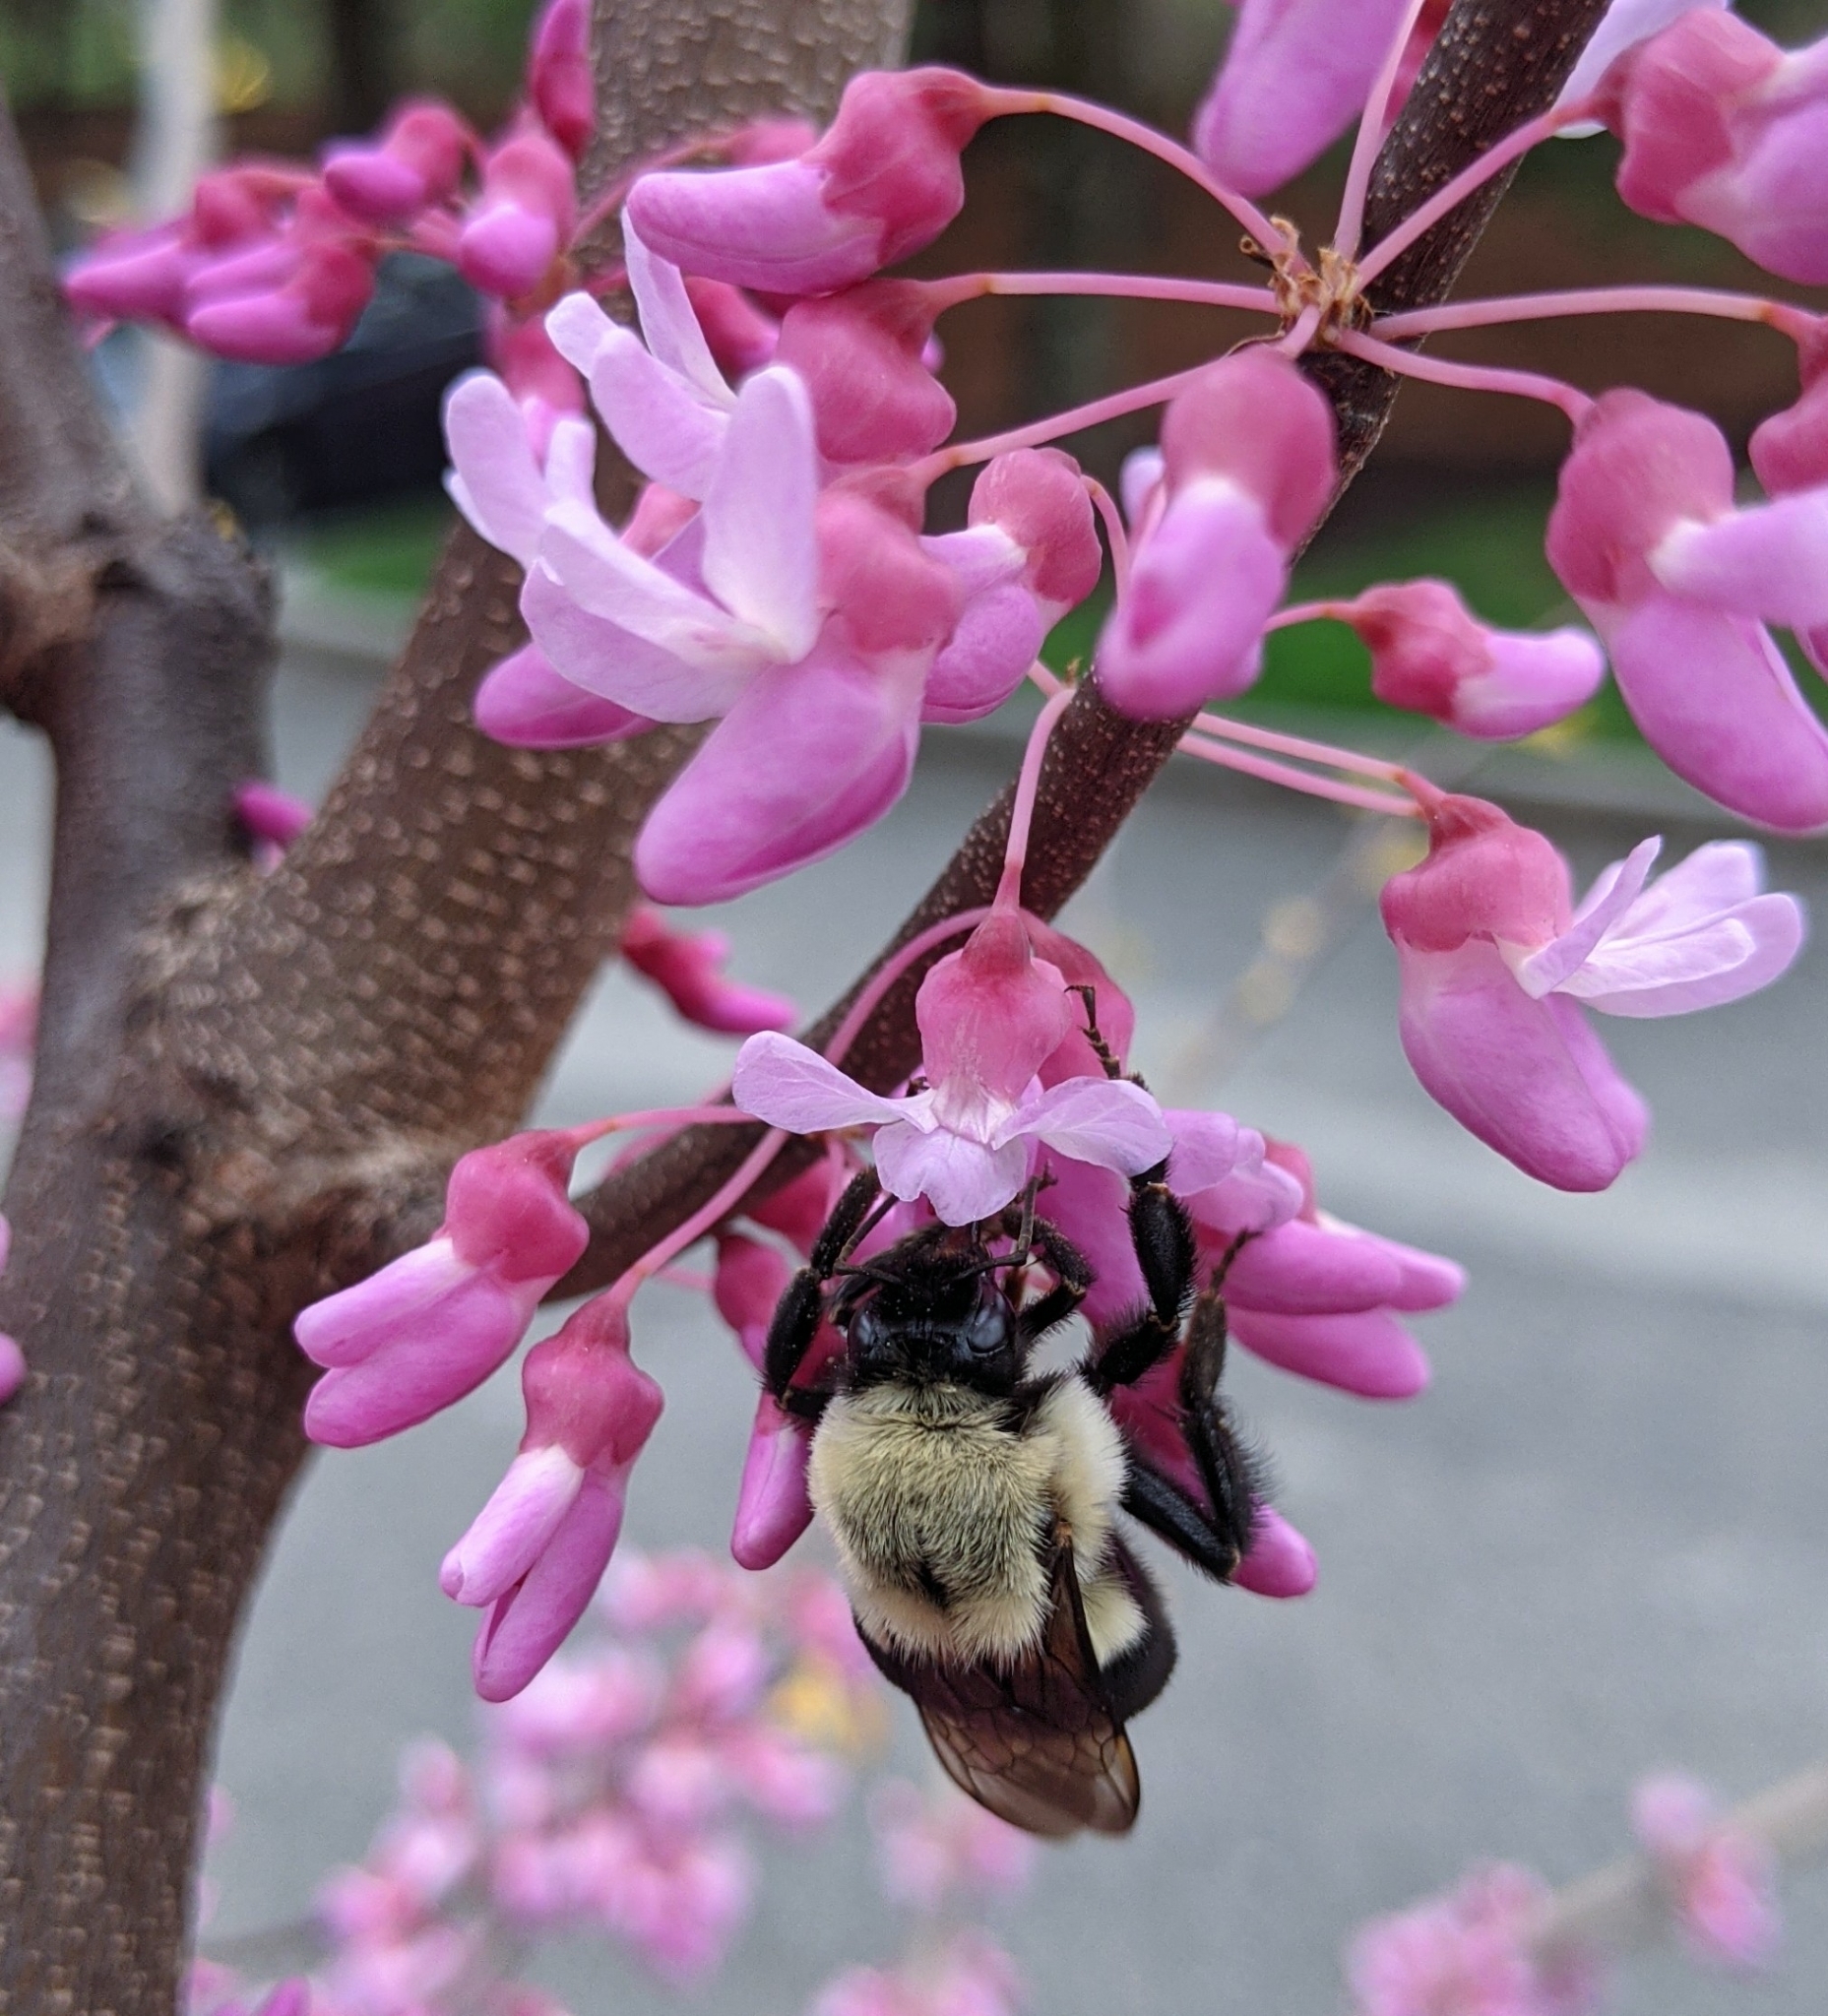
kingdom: Animalia
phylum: Arthropoda
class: Insecta
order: Hymenoptera
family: Apidae
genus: Bombus
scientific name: Bombus impatiens
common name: Common eastern bumble bee
